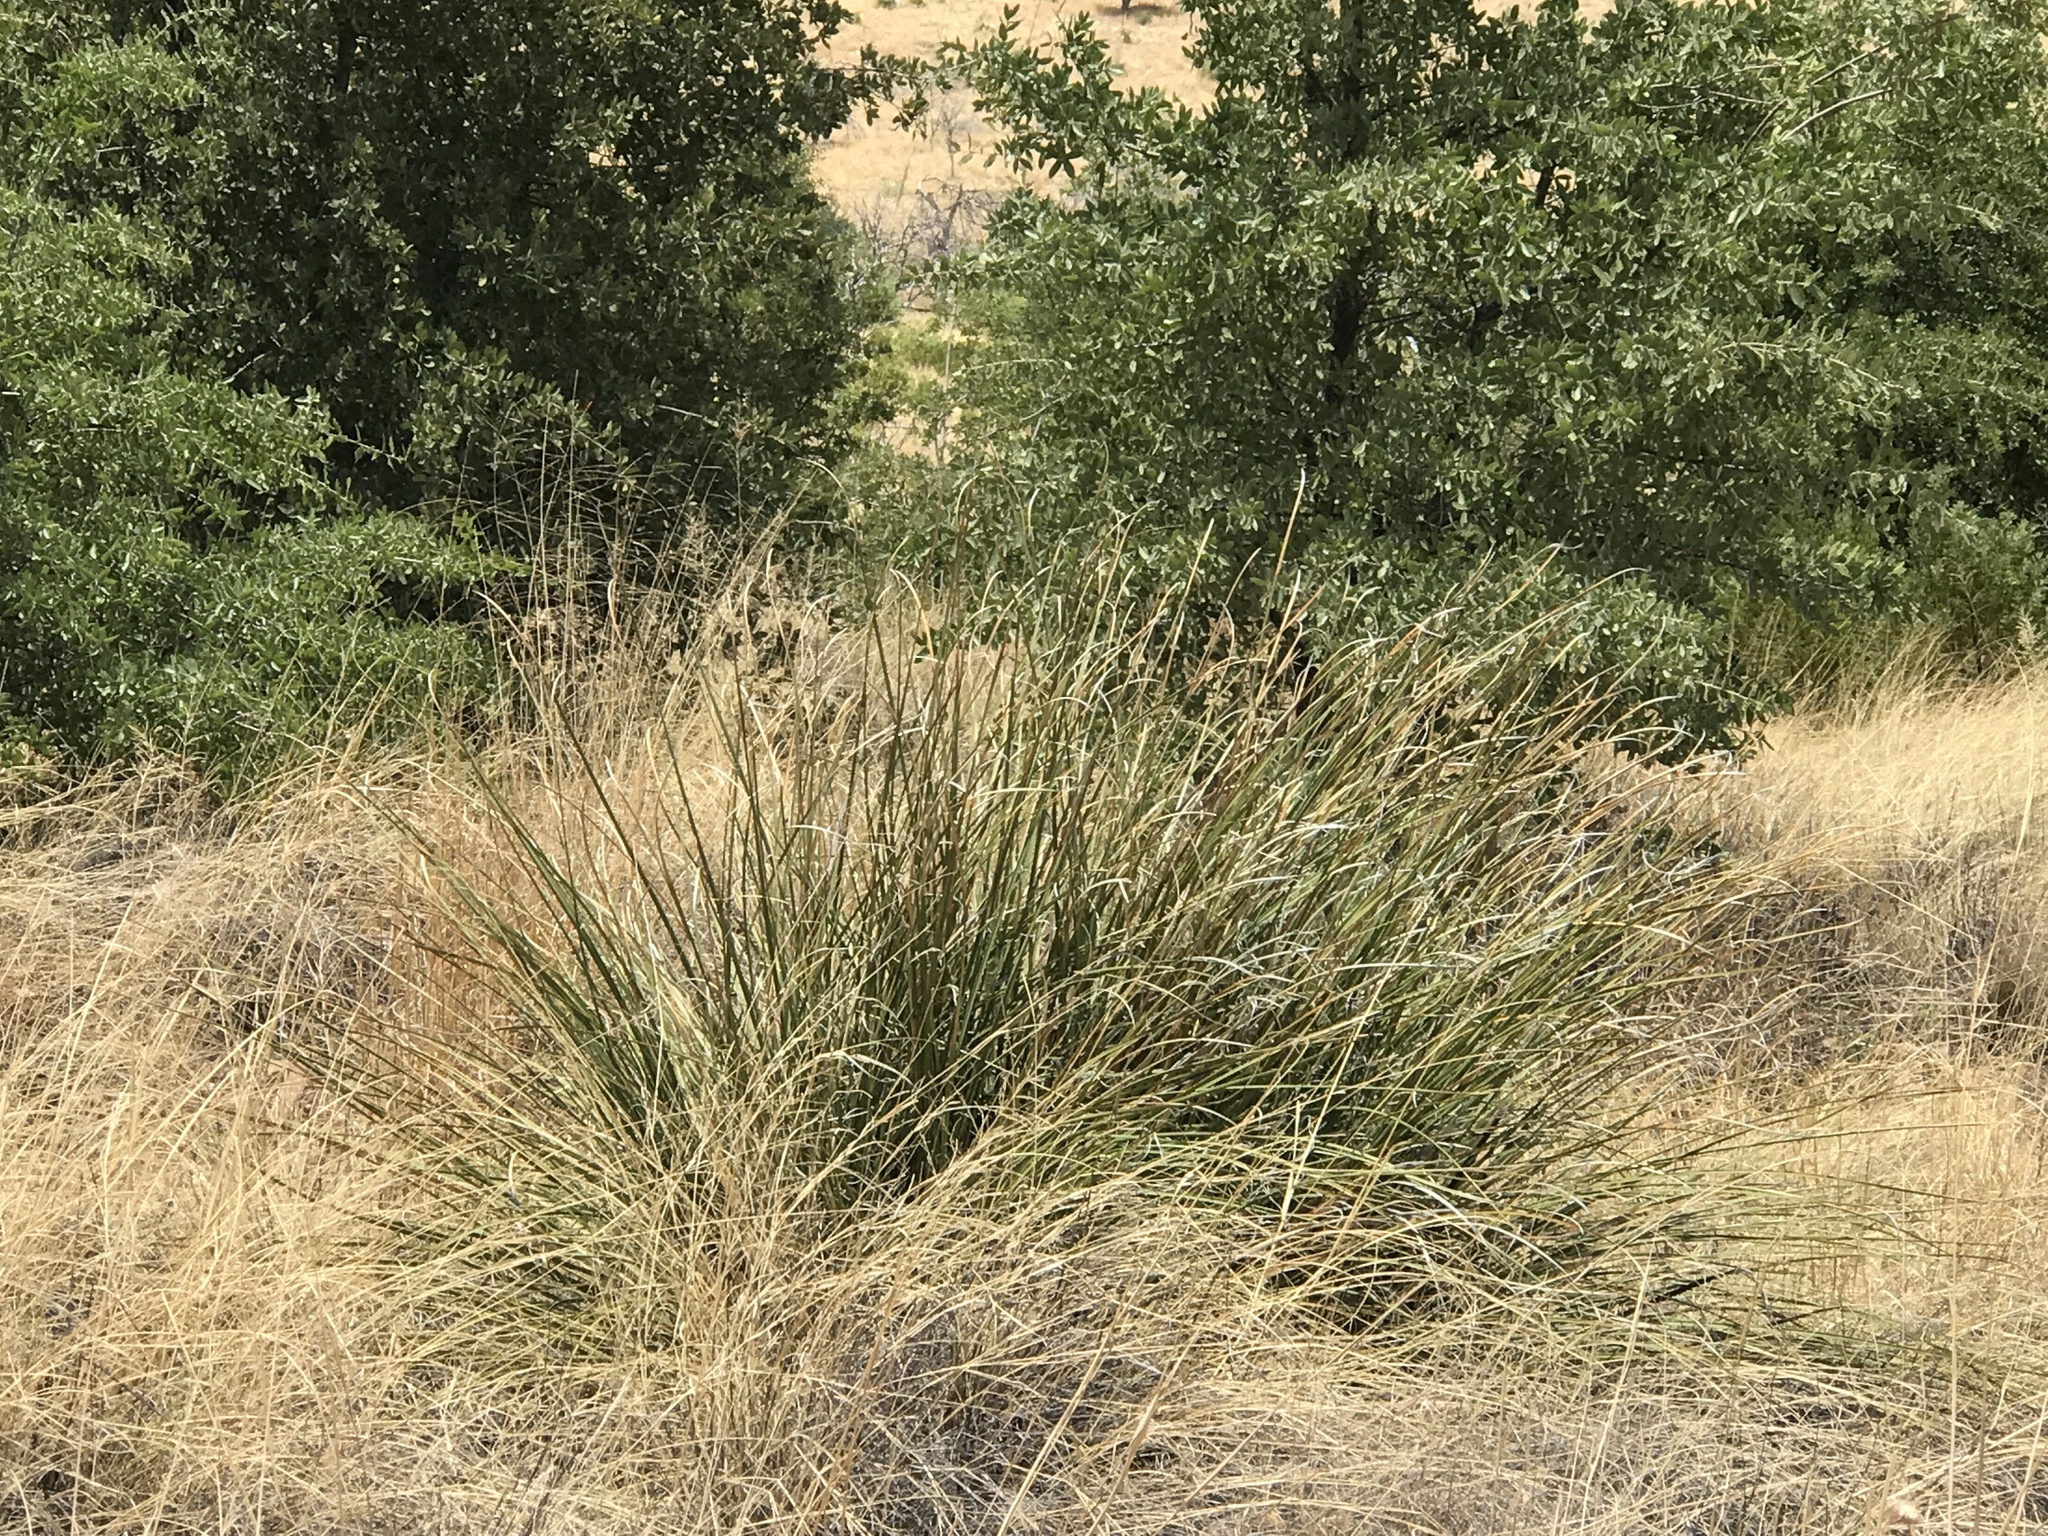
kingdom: Plantae
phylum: Tracheophyta
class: Liliopsida
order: Asparagales
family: Asparagaceae
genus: Nolina
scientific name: Nolina microcarpa
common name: Bear-grass
